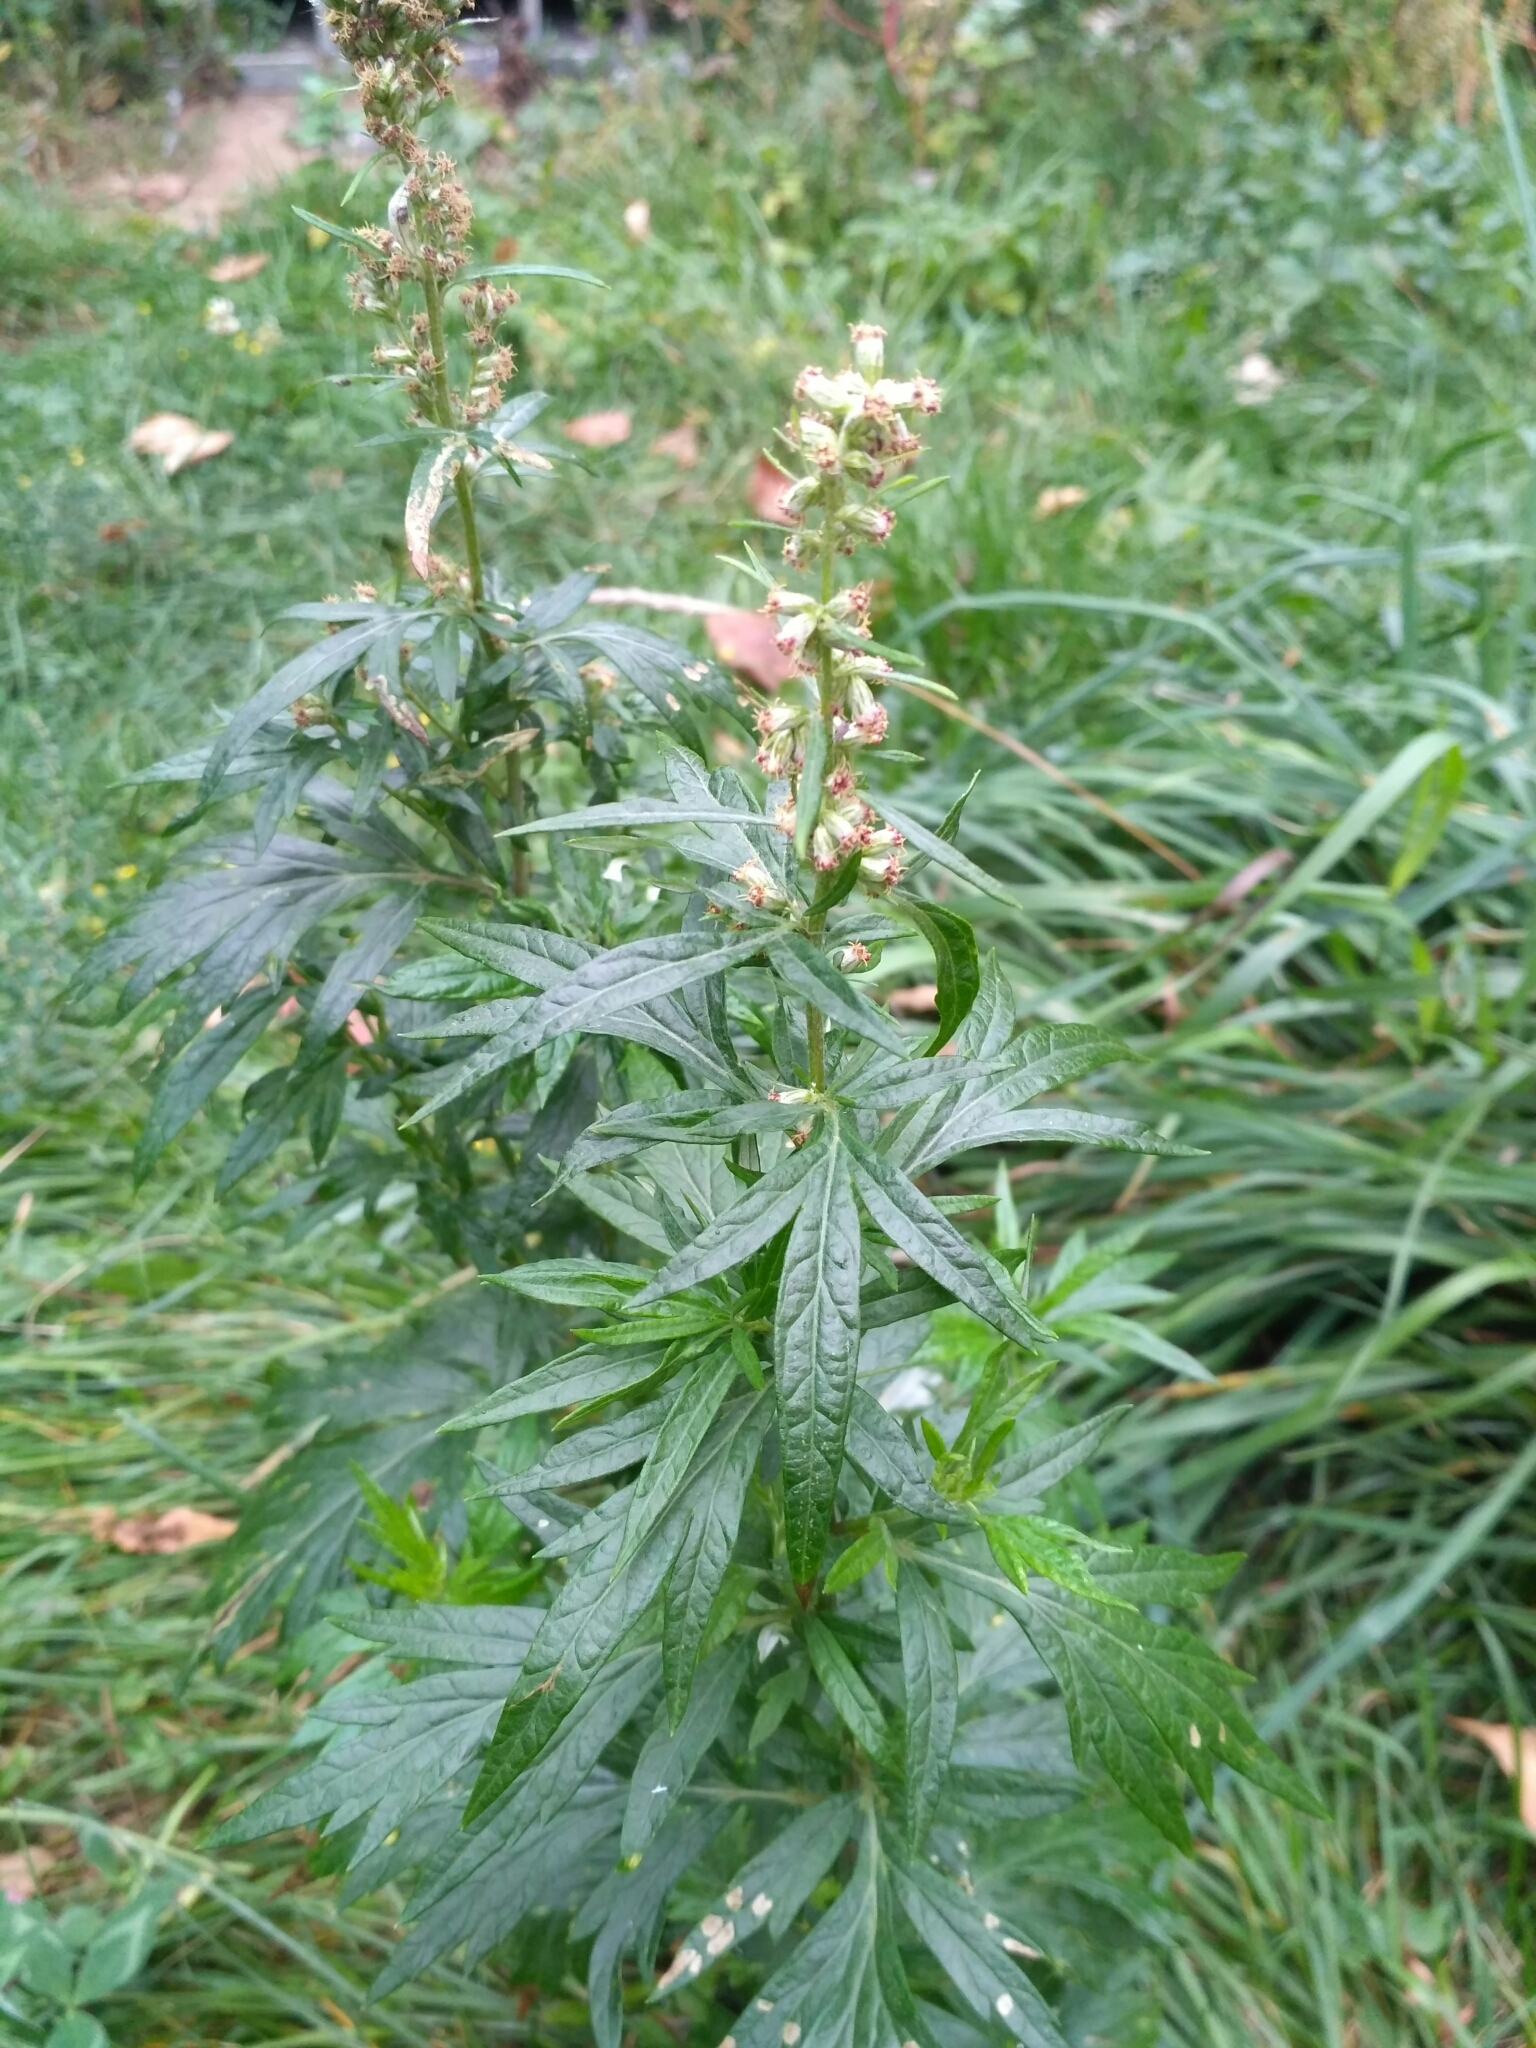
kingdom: Plantae
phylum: Tracheophyta
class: Magnoliopsida
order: Asterales
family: Asteraceae
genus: Artemisia
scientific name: Artemisia vulgaris
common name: Mugwort
